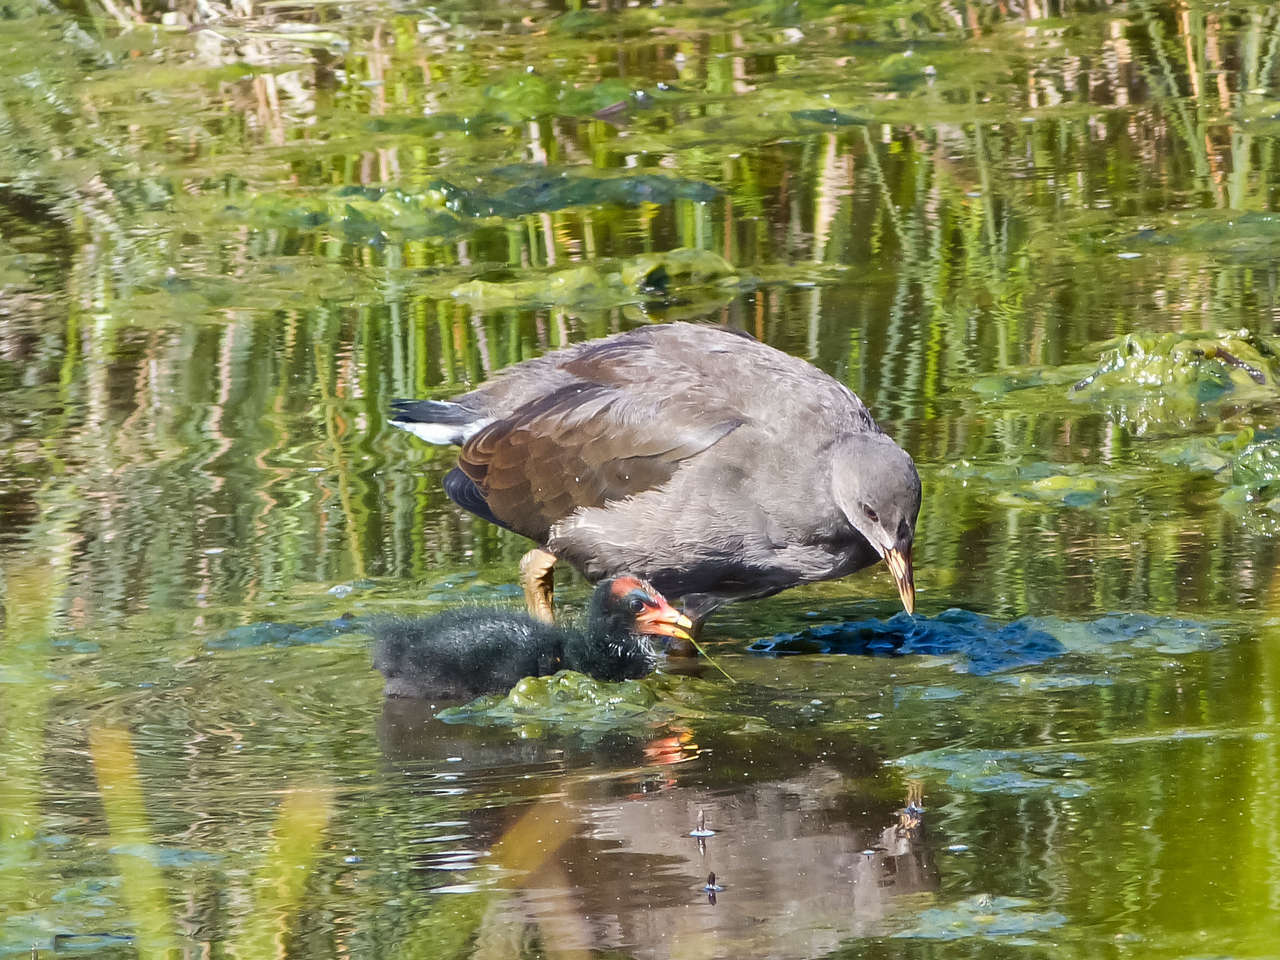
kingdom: Animalia
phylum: Chordata
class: Aves
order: Gruiformes
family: Rallidae
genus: Gallinula
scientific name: Gallinula tenebrosa
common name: Dusky moorhen
